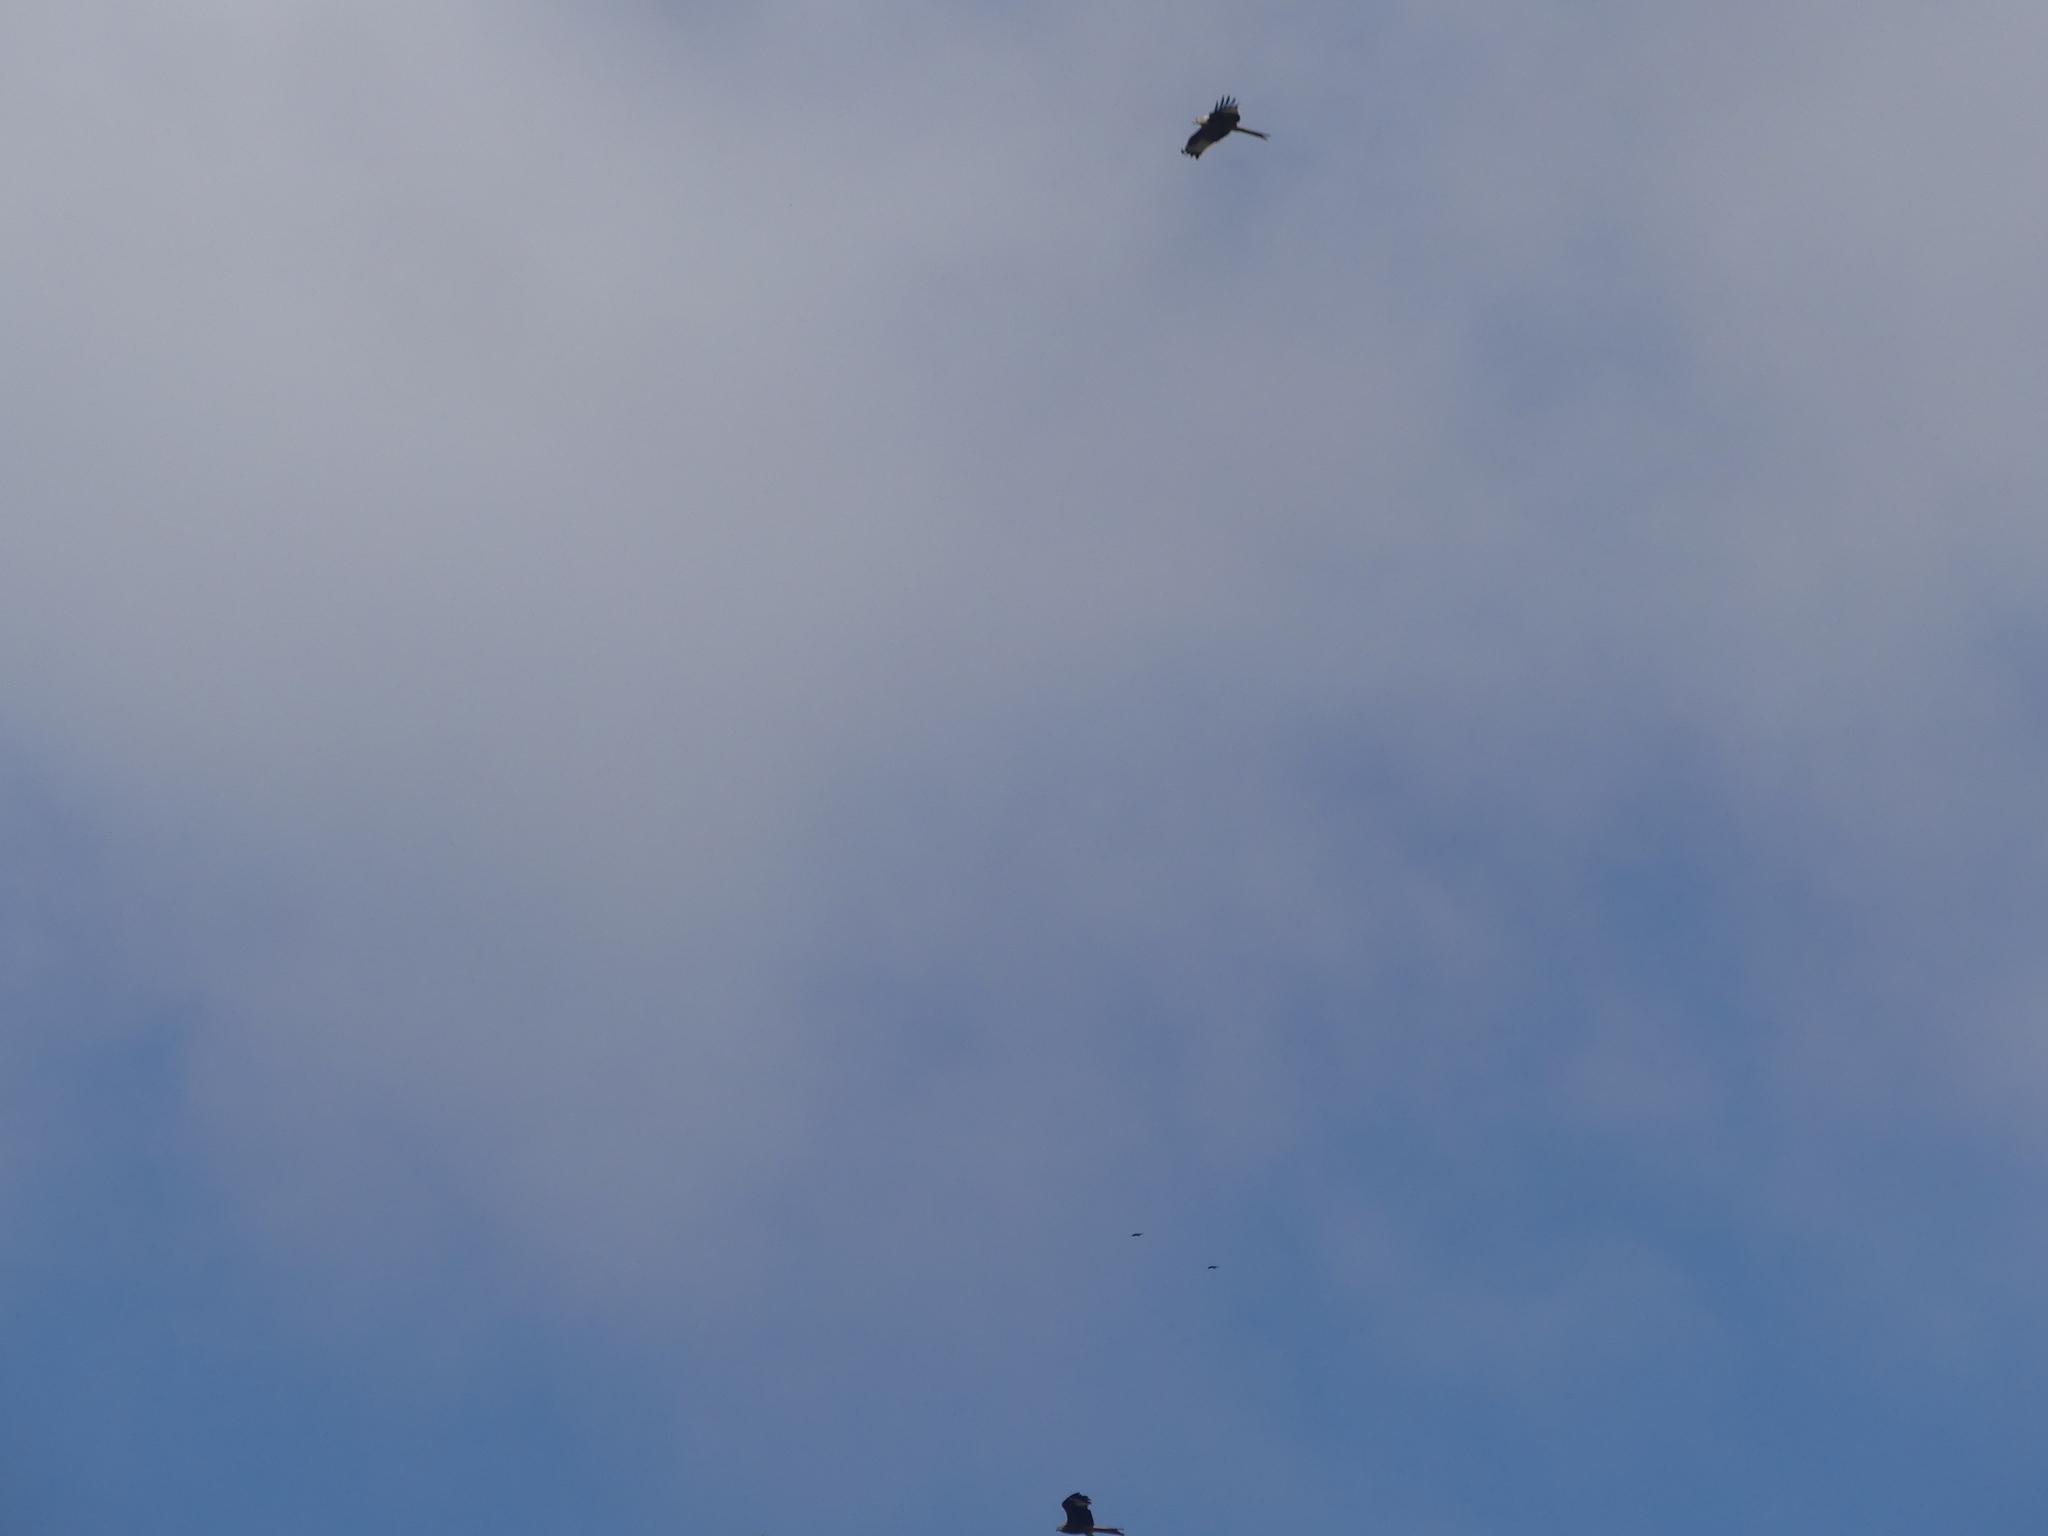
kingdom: Animalia
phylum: Chordata
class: Aves
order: Accipitriformes
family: Accipitridae
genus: Milvus
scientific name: Milvus milvus
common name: Red kite
